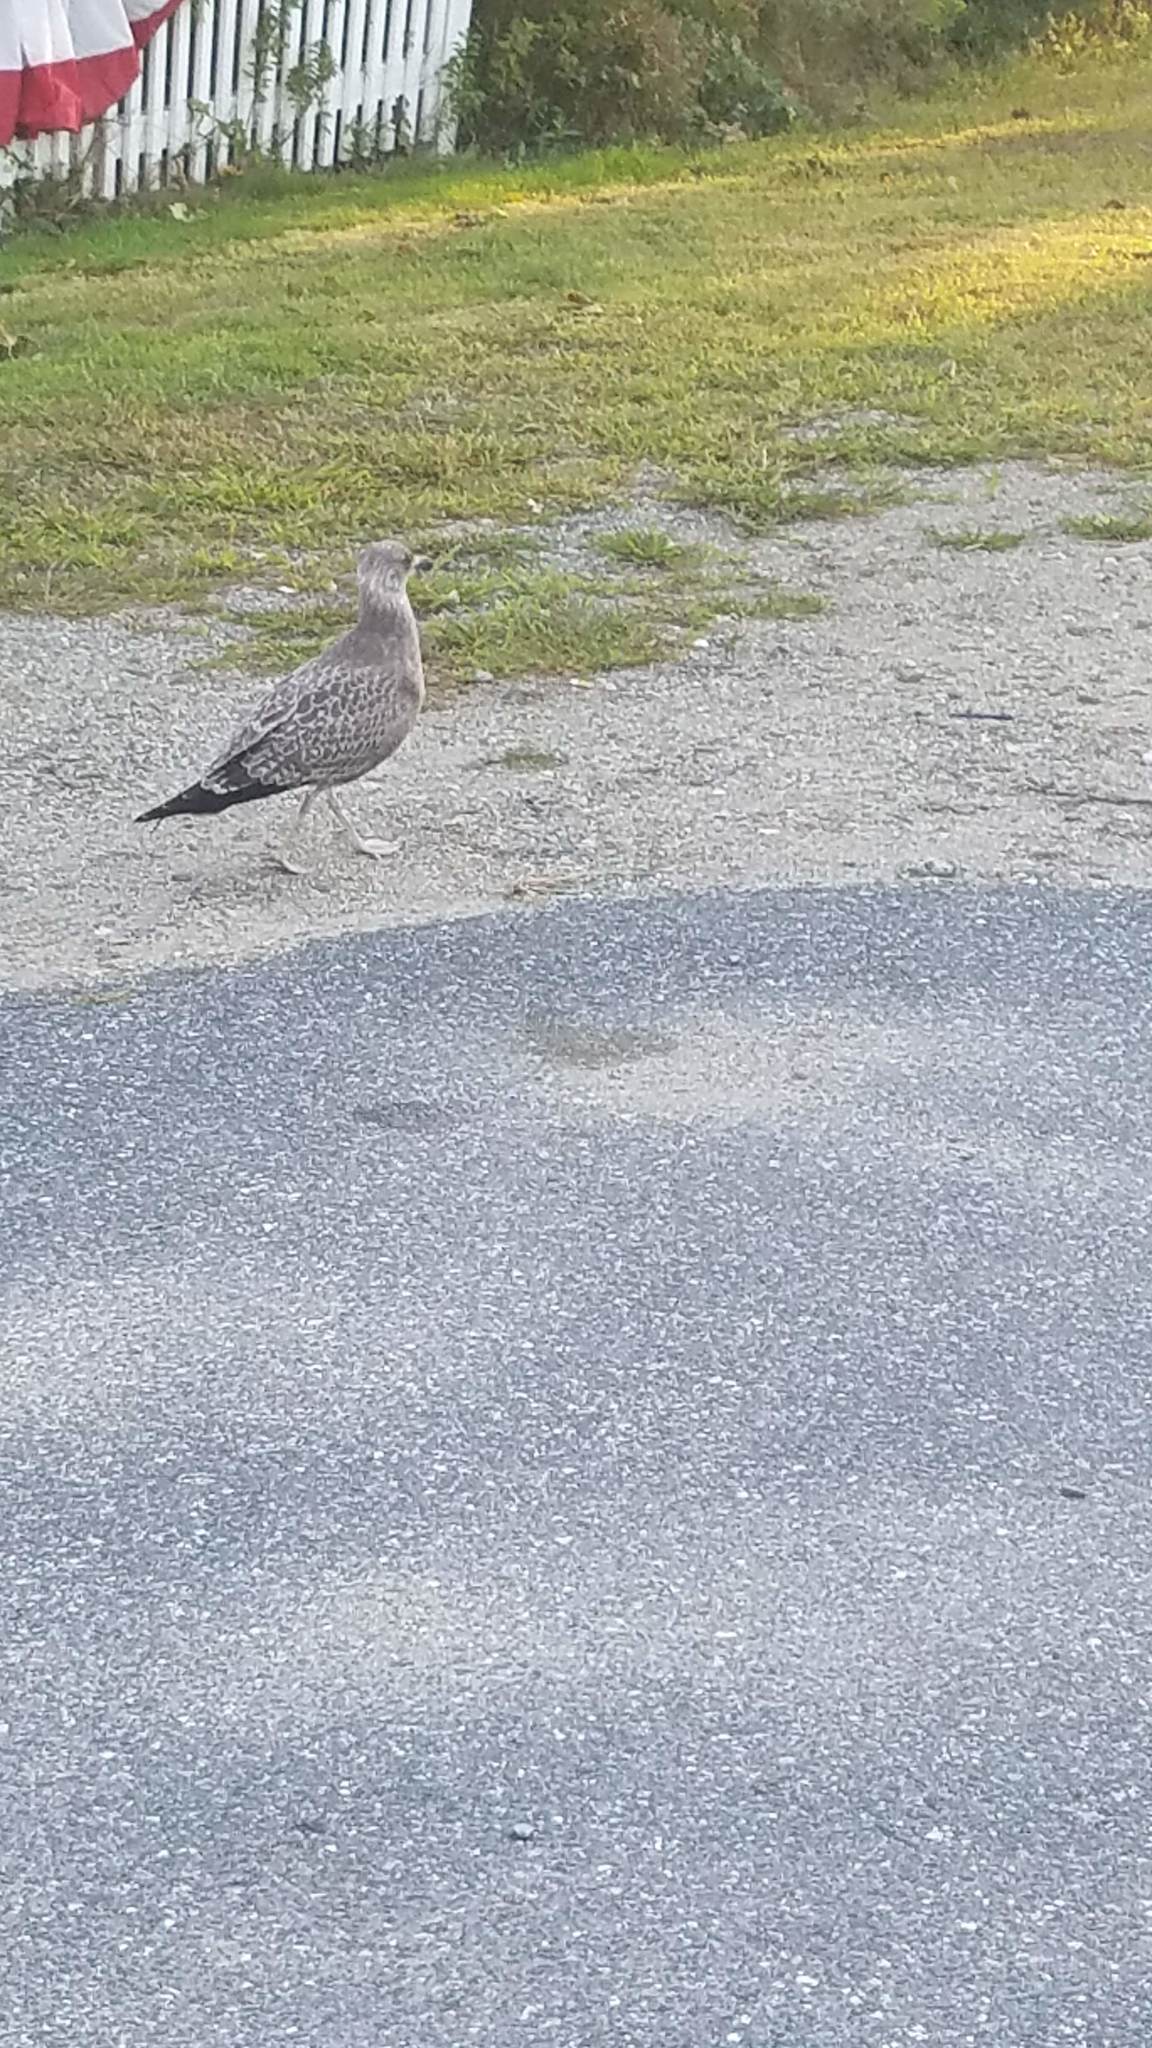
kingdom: Animalia
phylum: Chordata
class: Aves
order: Charadriiformes
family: Laridae
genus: Larus
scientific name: Larus argentatus
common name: Herring gull
